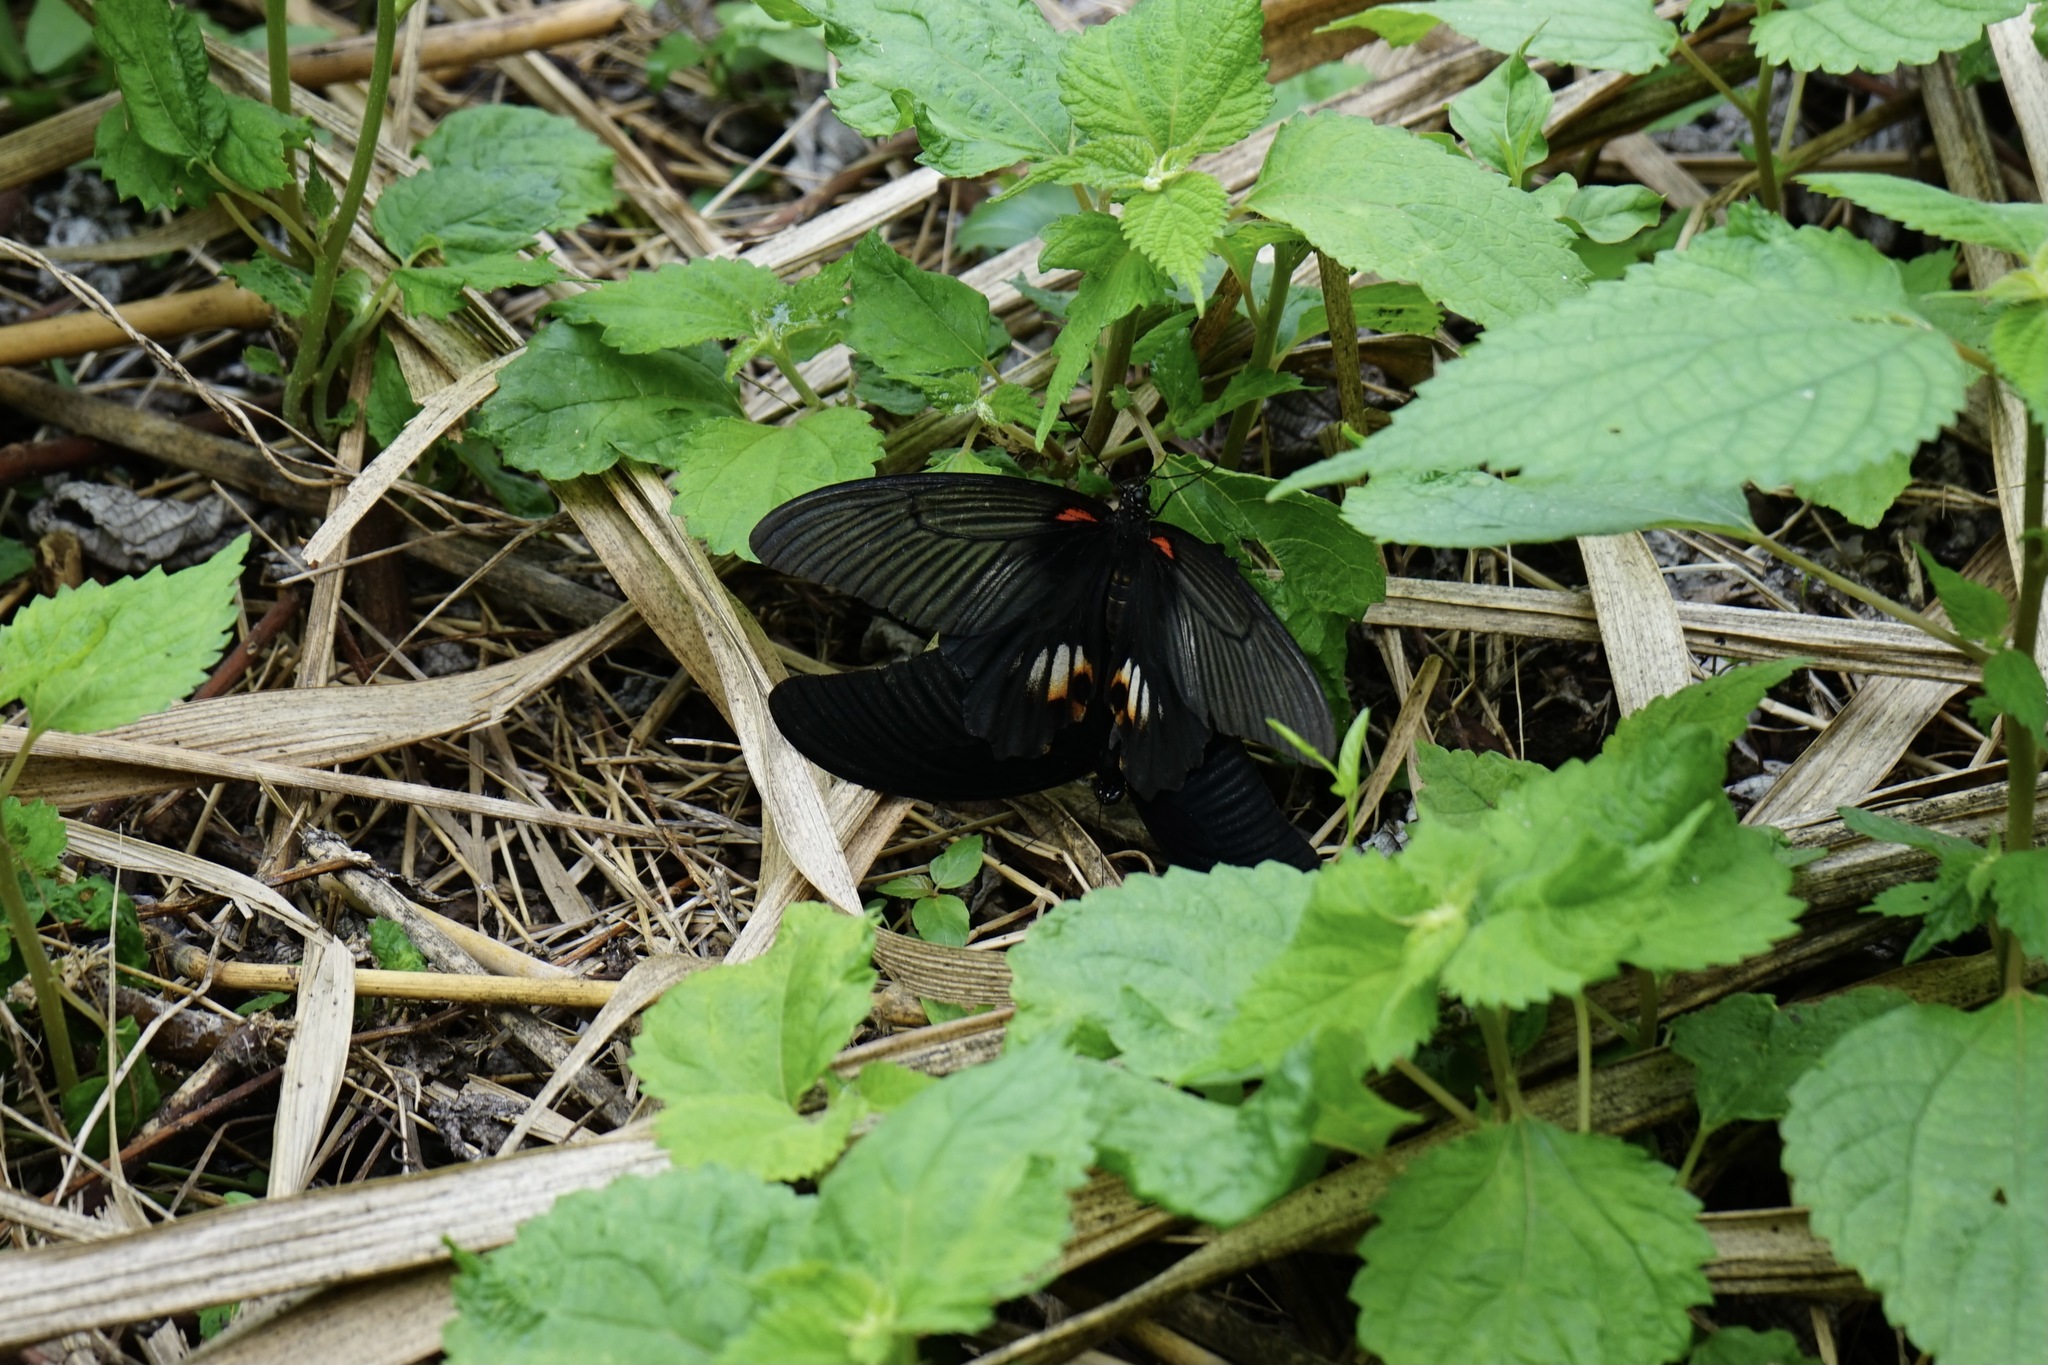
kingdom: Animalia
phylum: Arthropoda
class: Insecta
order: Lepidoptera
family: Papilionidae
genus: Papilio
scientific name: Papilio memnon
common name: Great mormon
